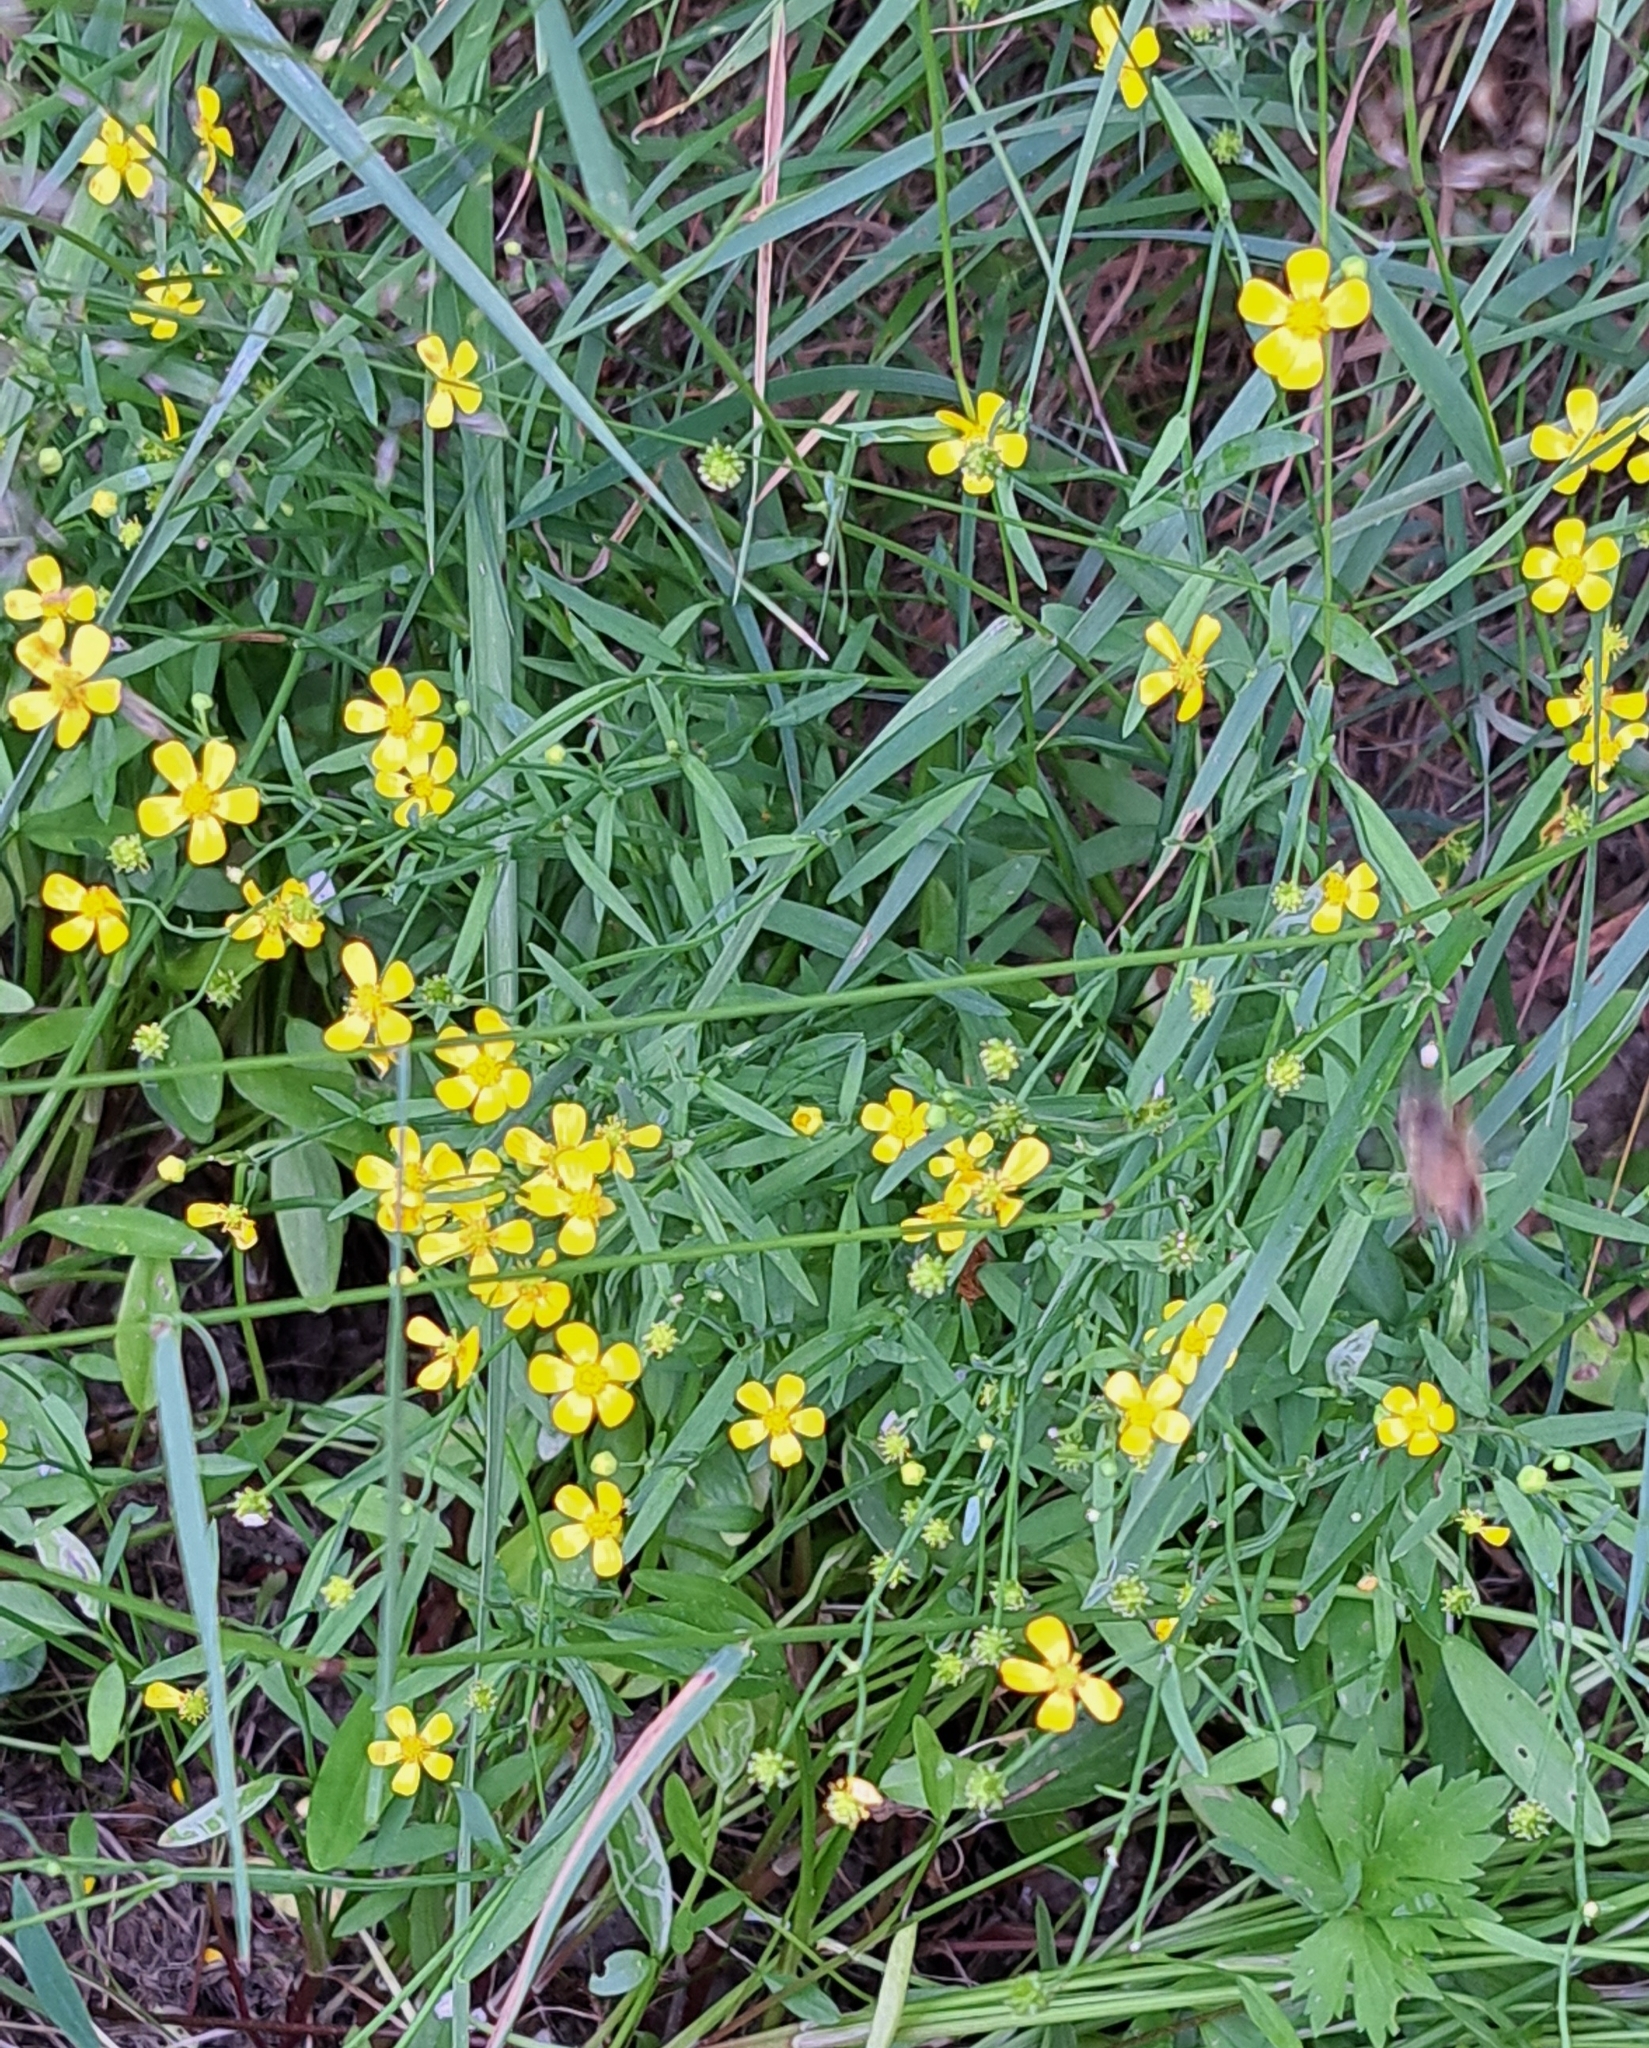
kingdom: Plantae
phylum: Tracheophyta
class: Magnoliopsida
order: Ranunculales
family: Ranunculaceae
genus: Ranunculus
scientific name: Ranunculus flammula
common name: Lesser spearwort
